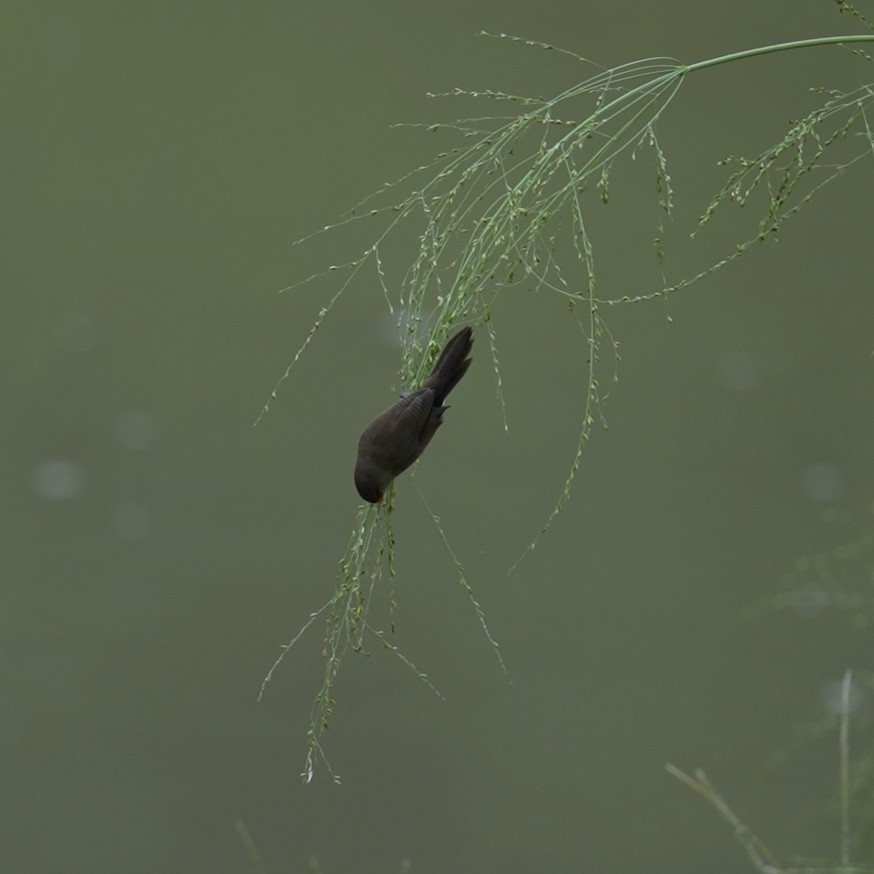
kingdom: Animalia
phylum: Chordata
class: Aves
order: Passeriformes
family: Estrildidae
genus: Estrilda
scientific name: Estrilda astrild
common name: Common waxbill
